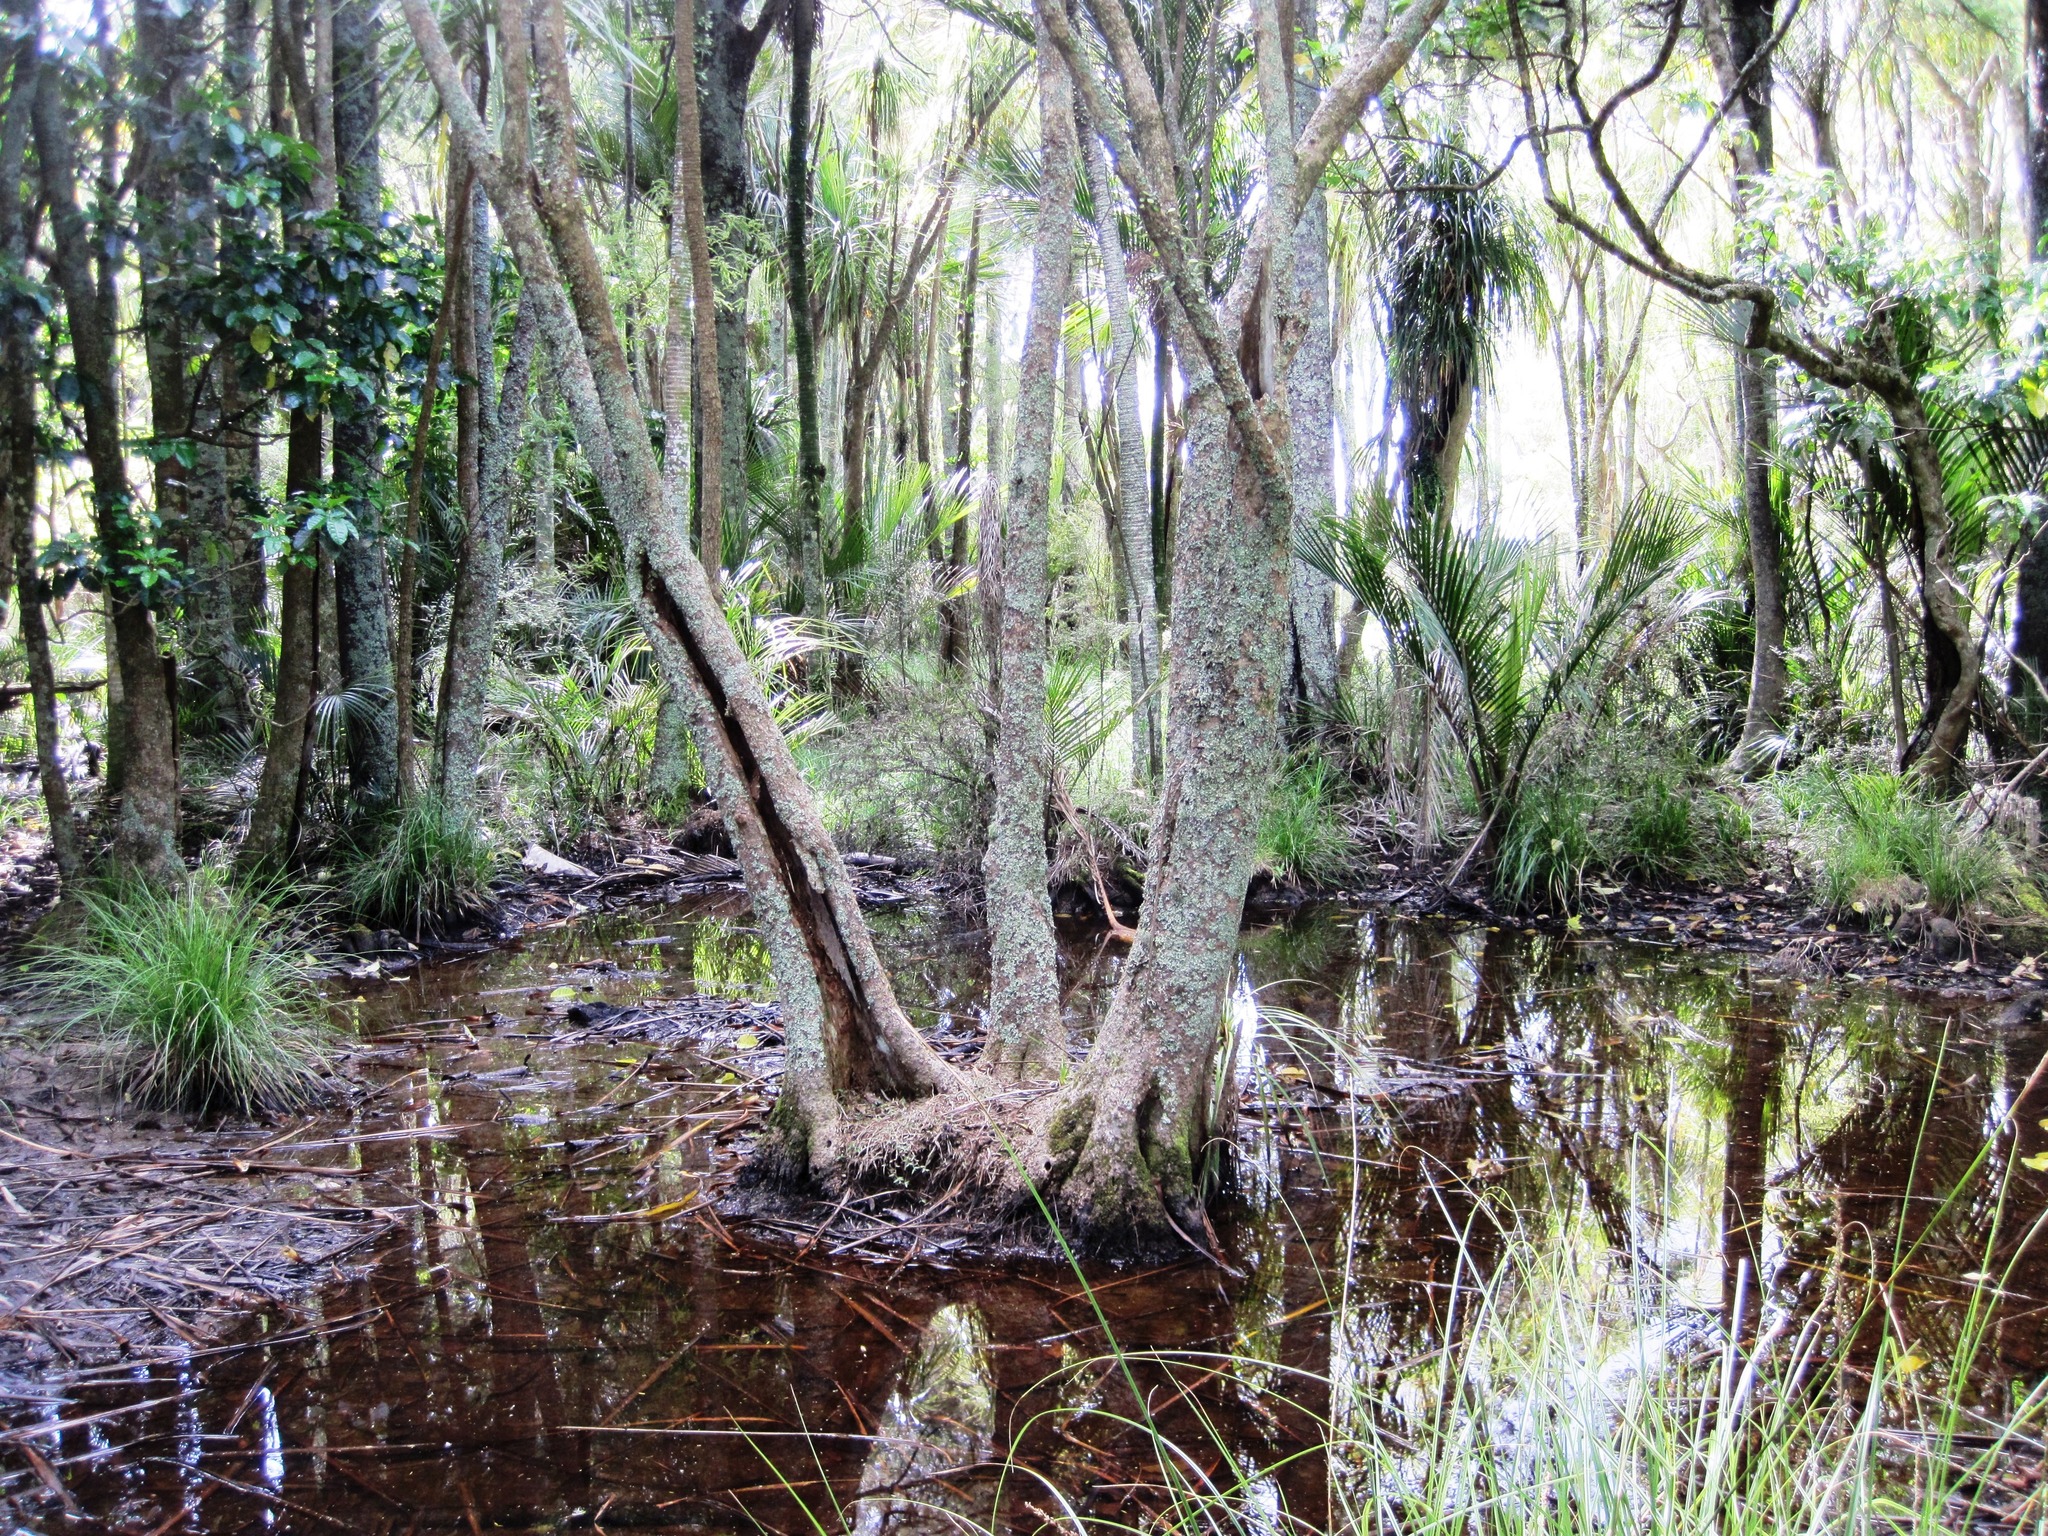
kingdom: Plantae
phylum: Tracheophyta
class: Liliopsida
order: Asparagales
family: Asparagaceae
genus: Cordyline
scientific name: Cordyline australis
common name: Cabbage-palm
